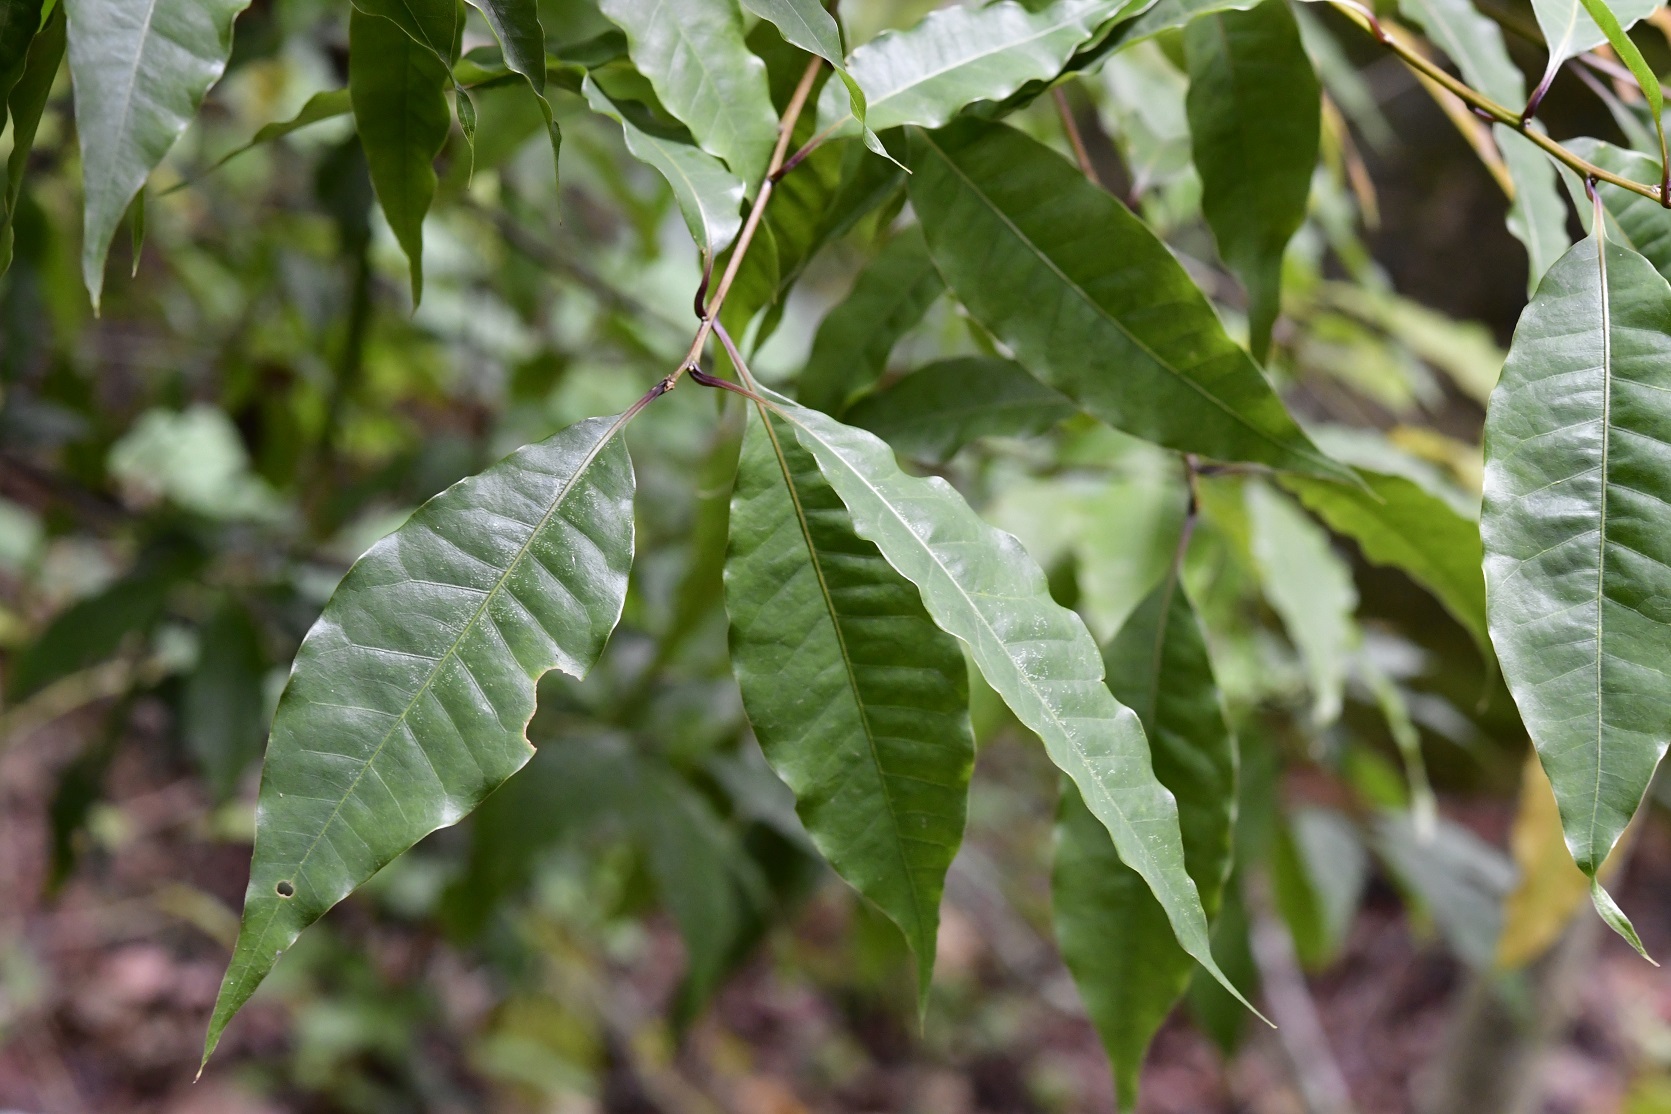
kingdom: Plantae
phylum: Tracheophyta
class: Magnoliopsida
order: Fagales
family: Fagaceae
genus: Quercus
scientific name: Quercus seemannii
